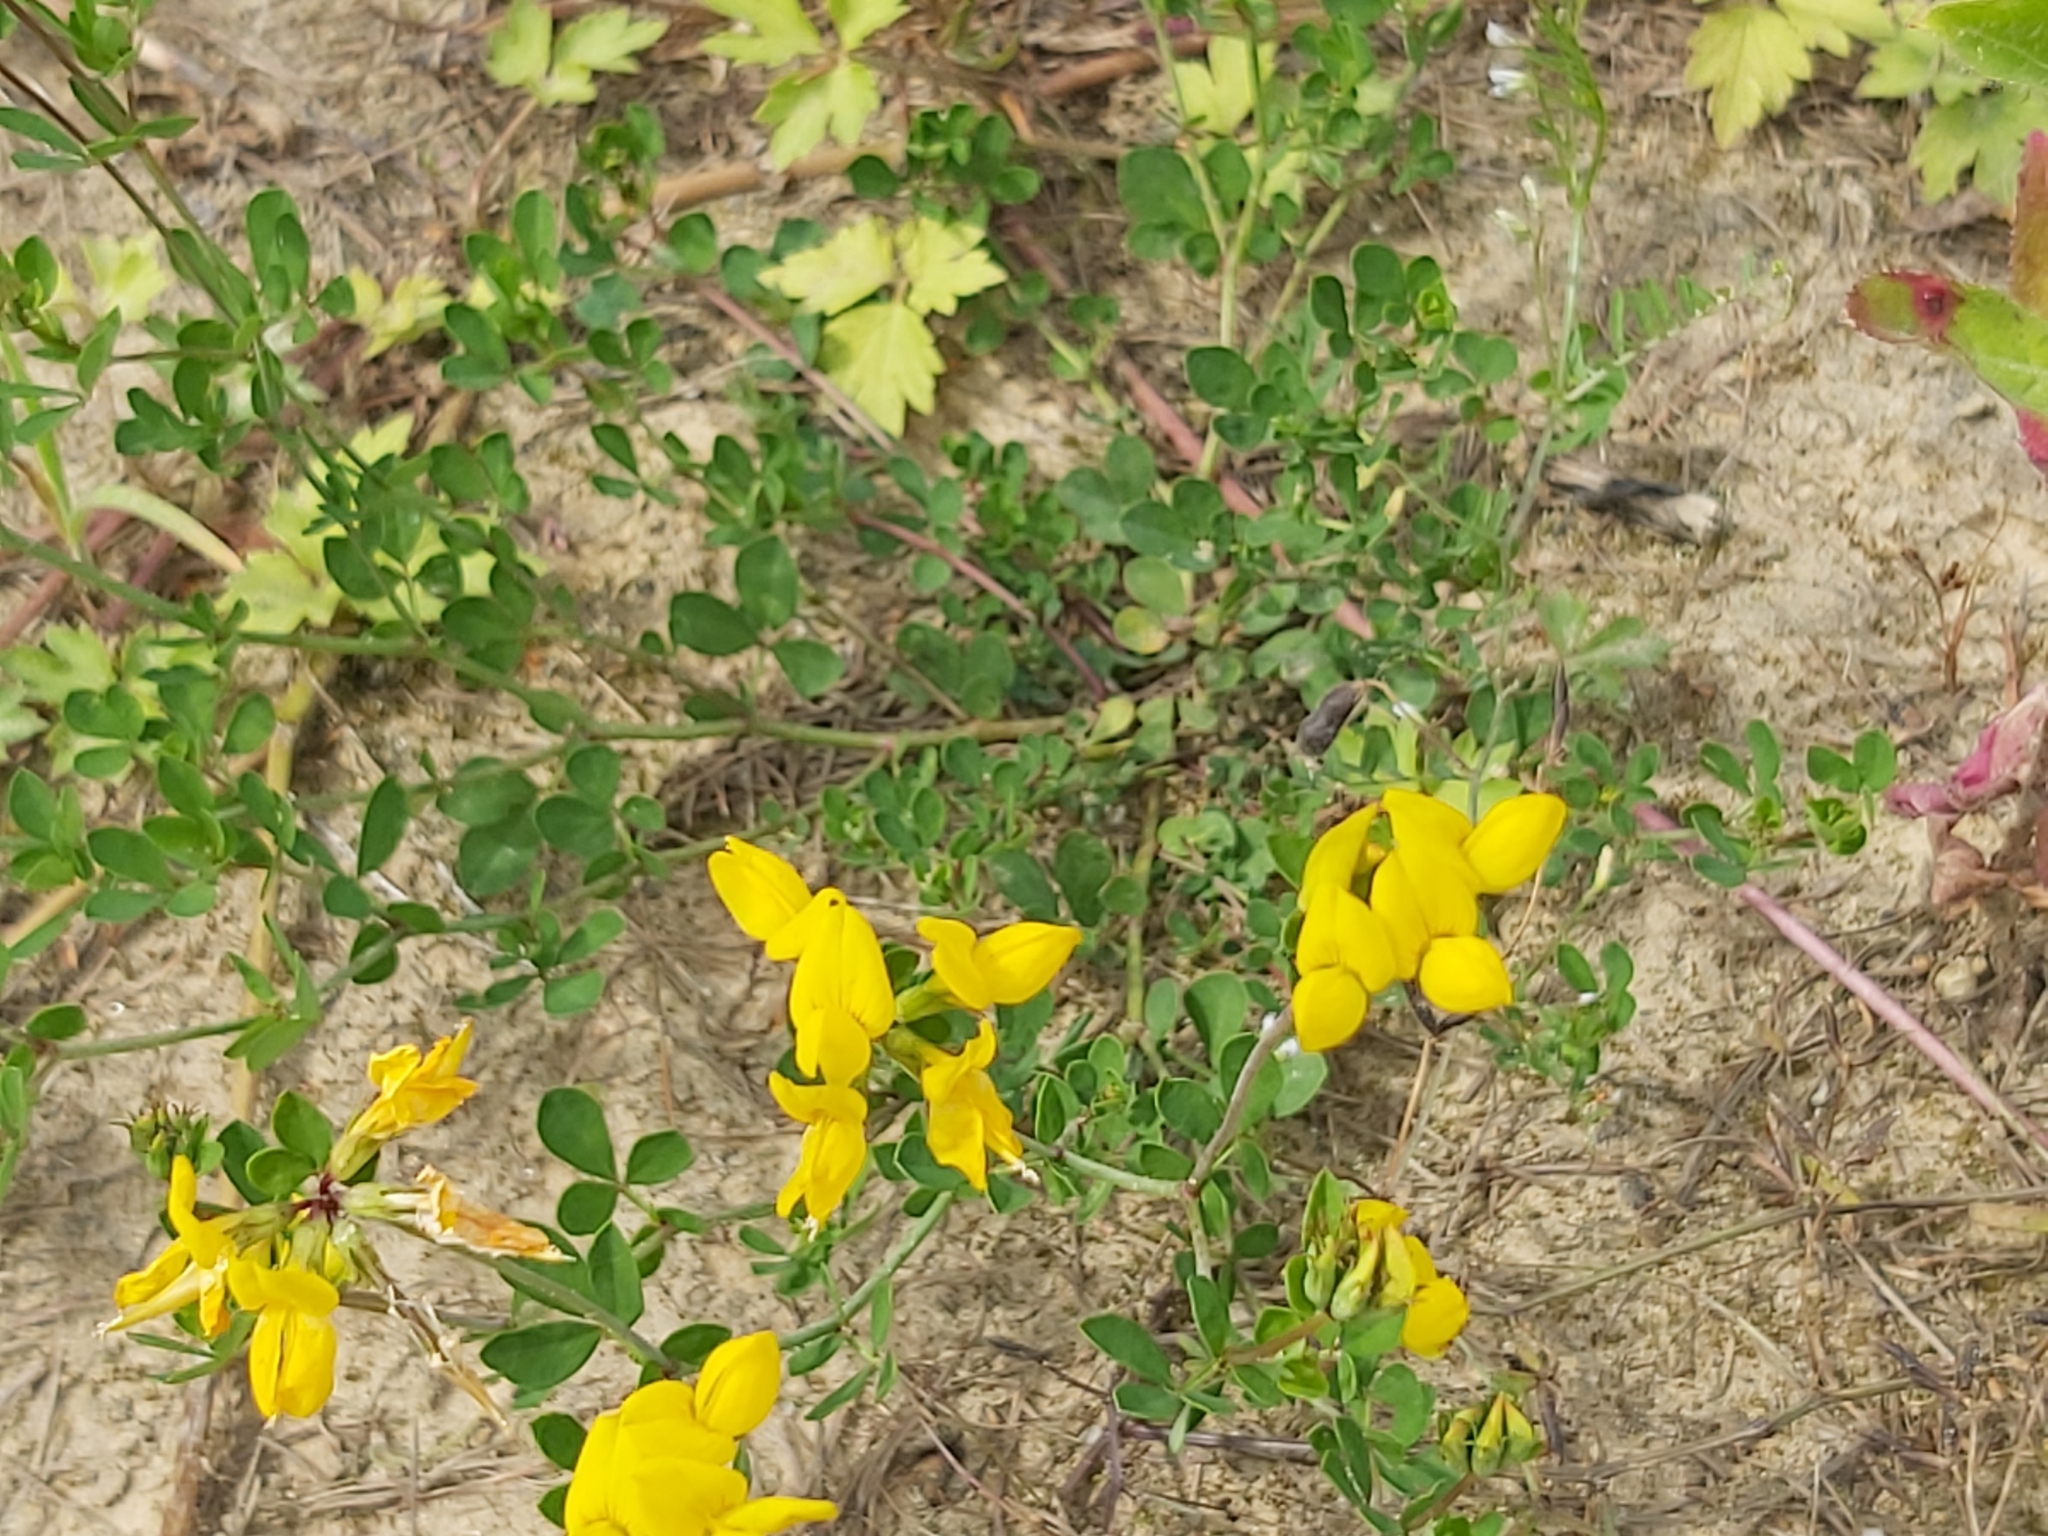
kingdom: Plantae
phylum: Tracheophyta
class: Magnoliopsida
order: Fabales
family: Fabaceae
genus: Lotus
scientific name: Lotus corniculatus
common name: Common bird's-foot-trefoil
